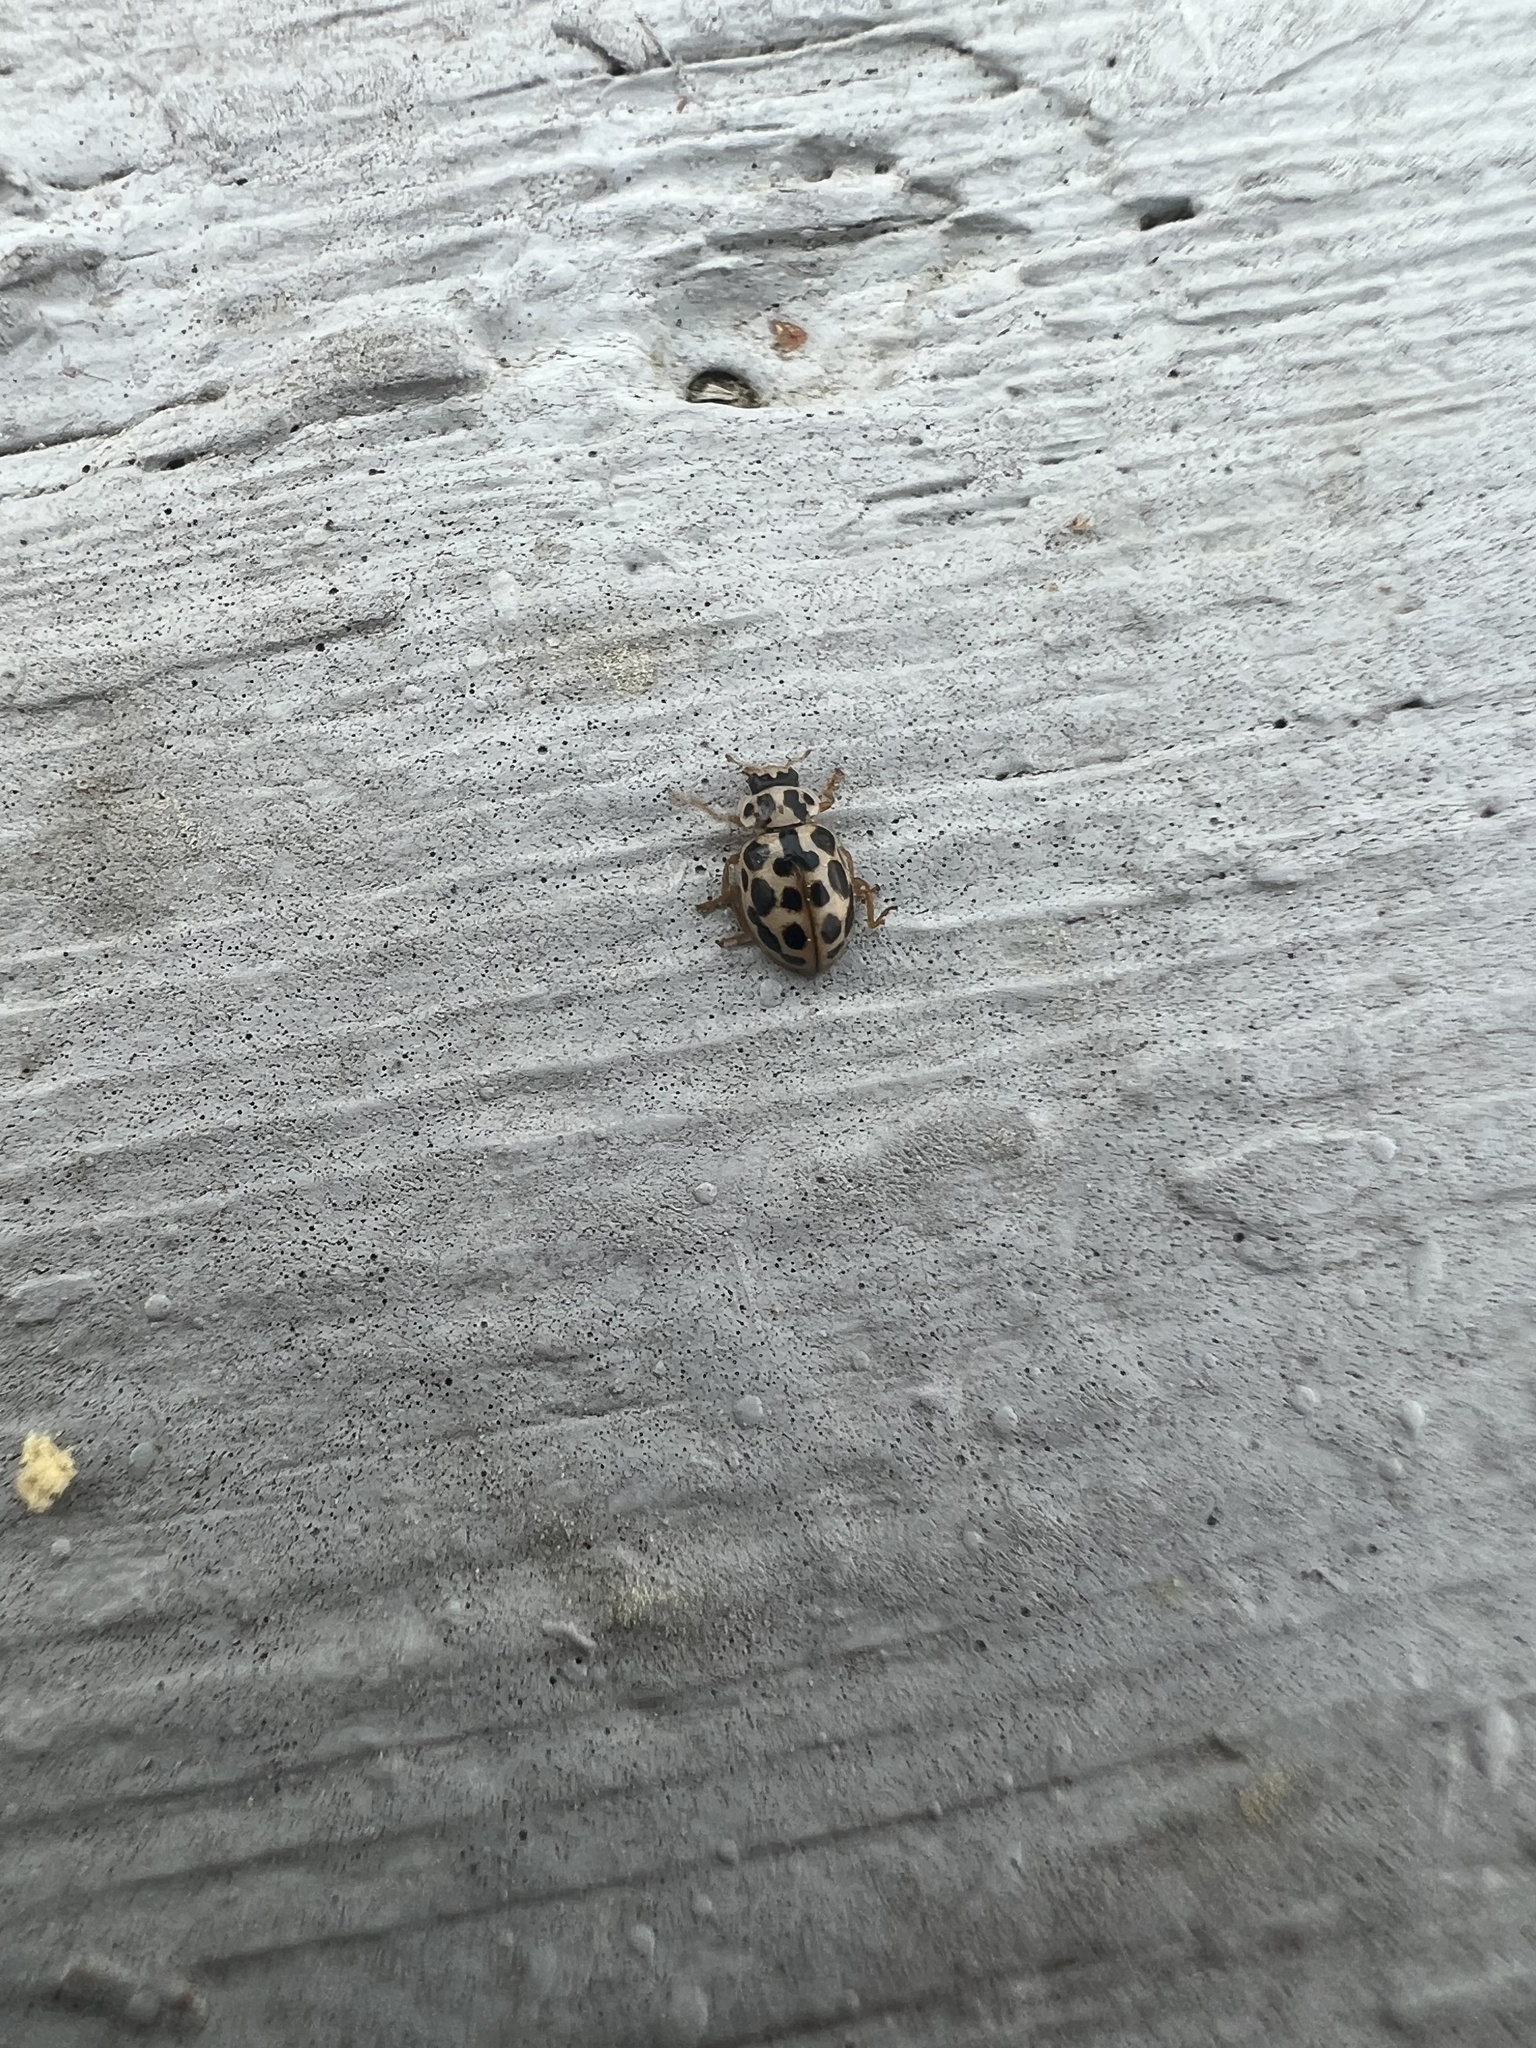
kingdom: Animalia
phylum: Arthropoda
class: Insecta
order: Coleoptera
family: Coccinellidae
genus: Anisosticta
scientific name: Anisosticta bitriangularis
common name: Marsh lady beetle
